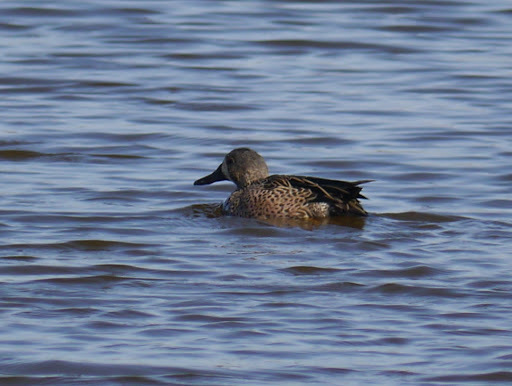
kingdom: Animalia
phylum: Chordata
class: Aves
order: Anseriformes
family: Anatidae
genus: Spatula
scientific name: Spatula discors
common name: Blue-winged teal
